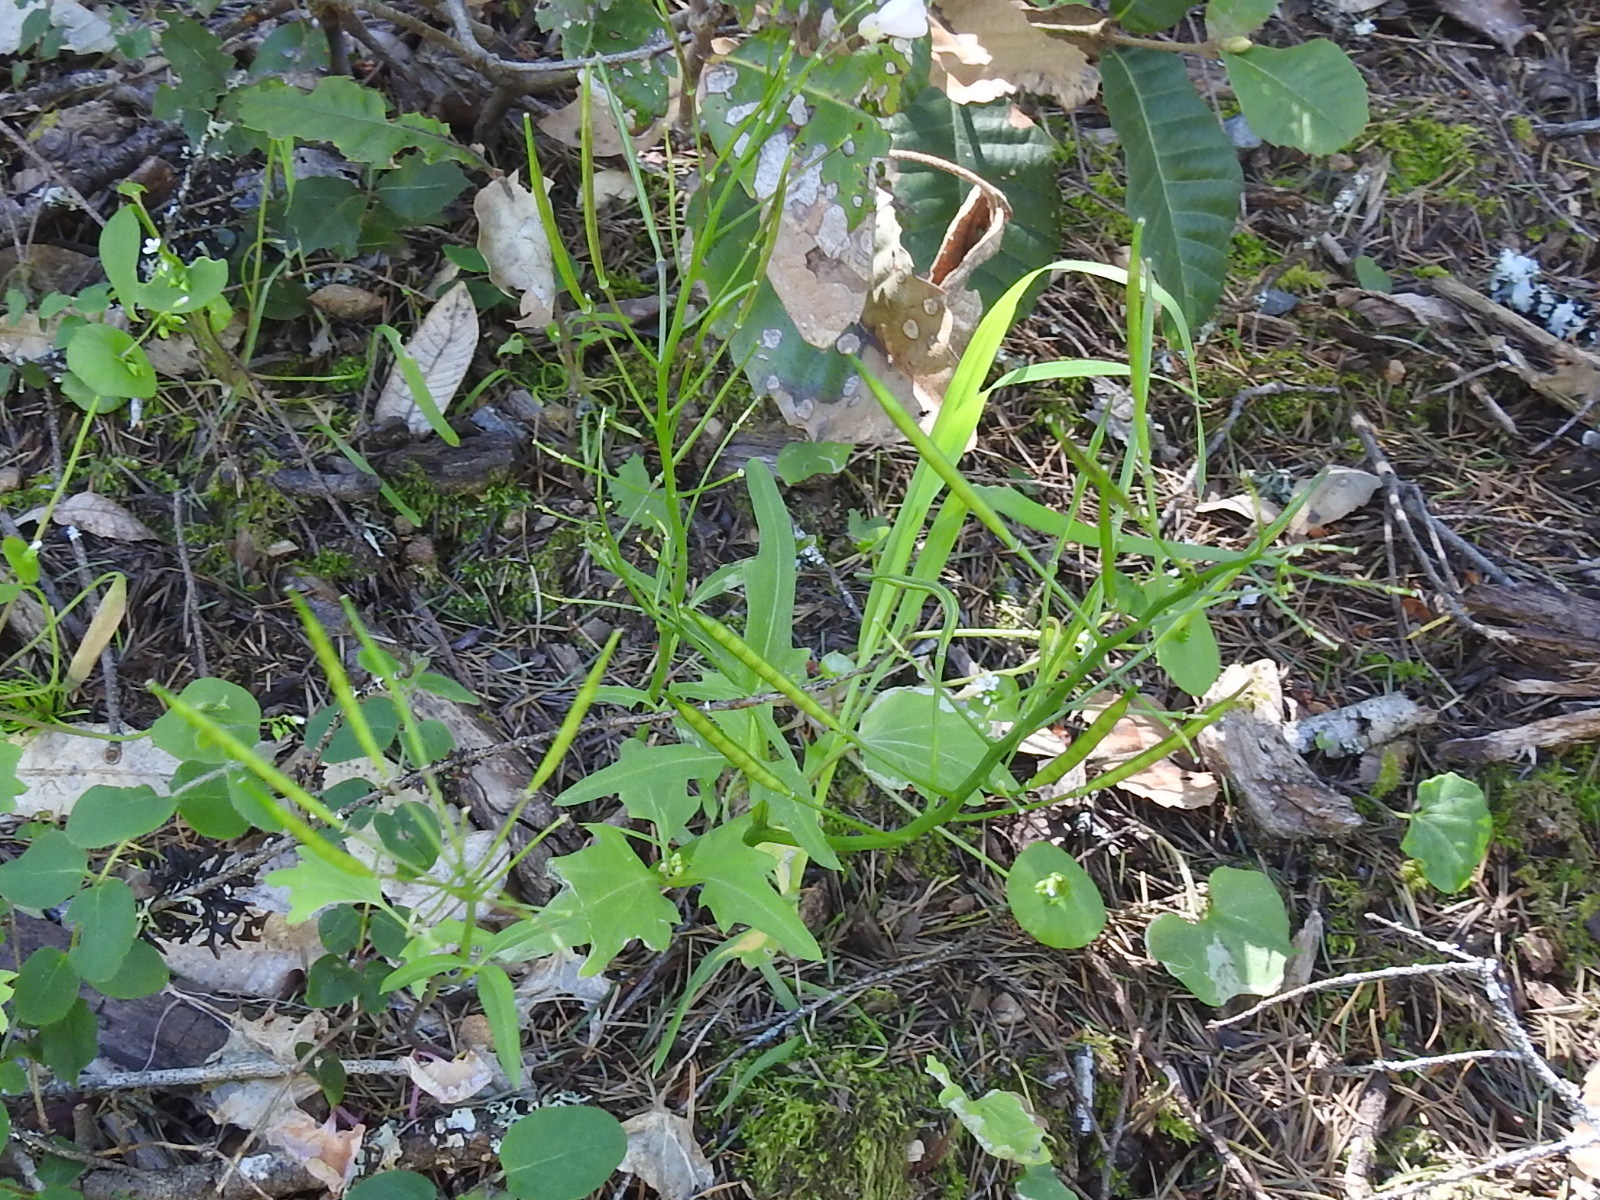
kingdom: Plantae
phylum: Tracheophyta
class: Magnoliopsida
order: Brassicales
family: Brassicaceae
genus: Cardamine
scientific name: Cardamine californica
